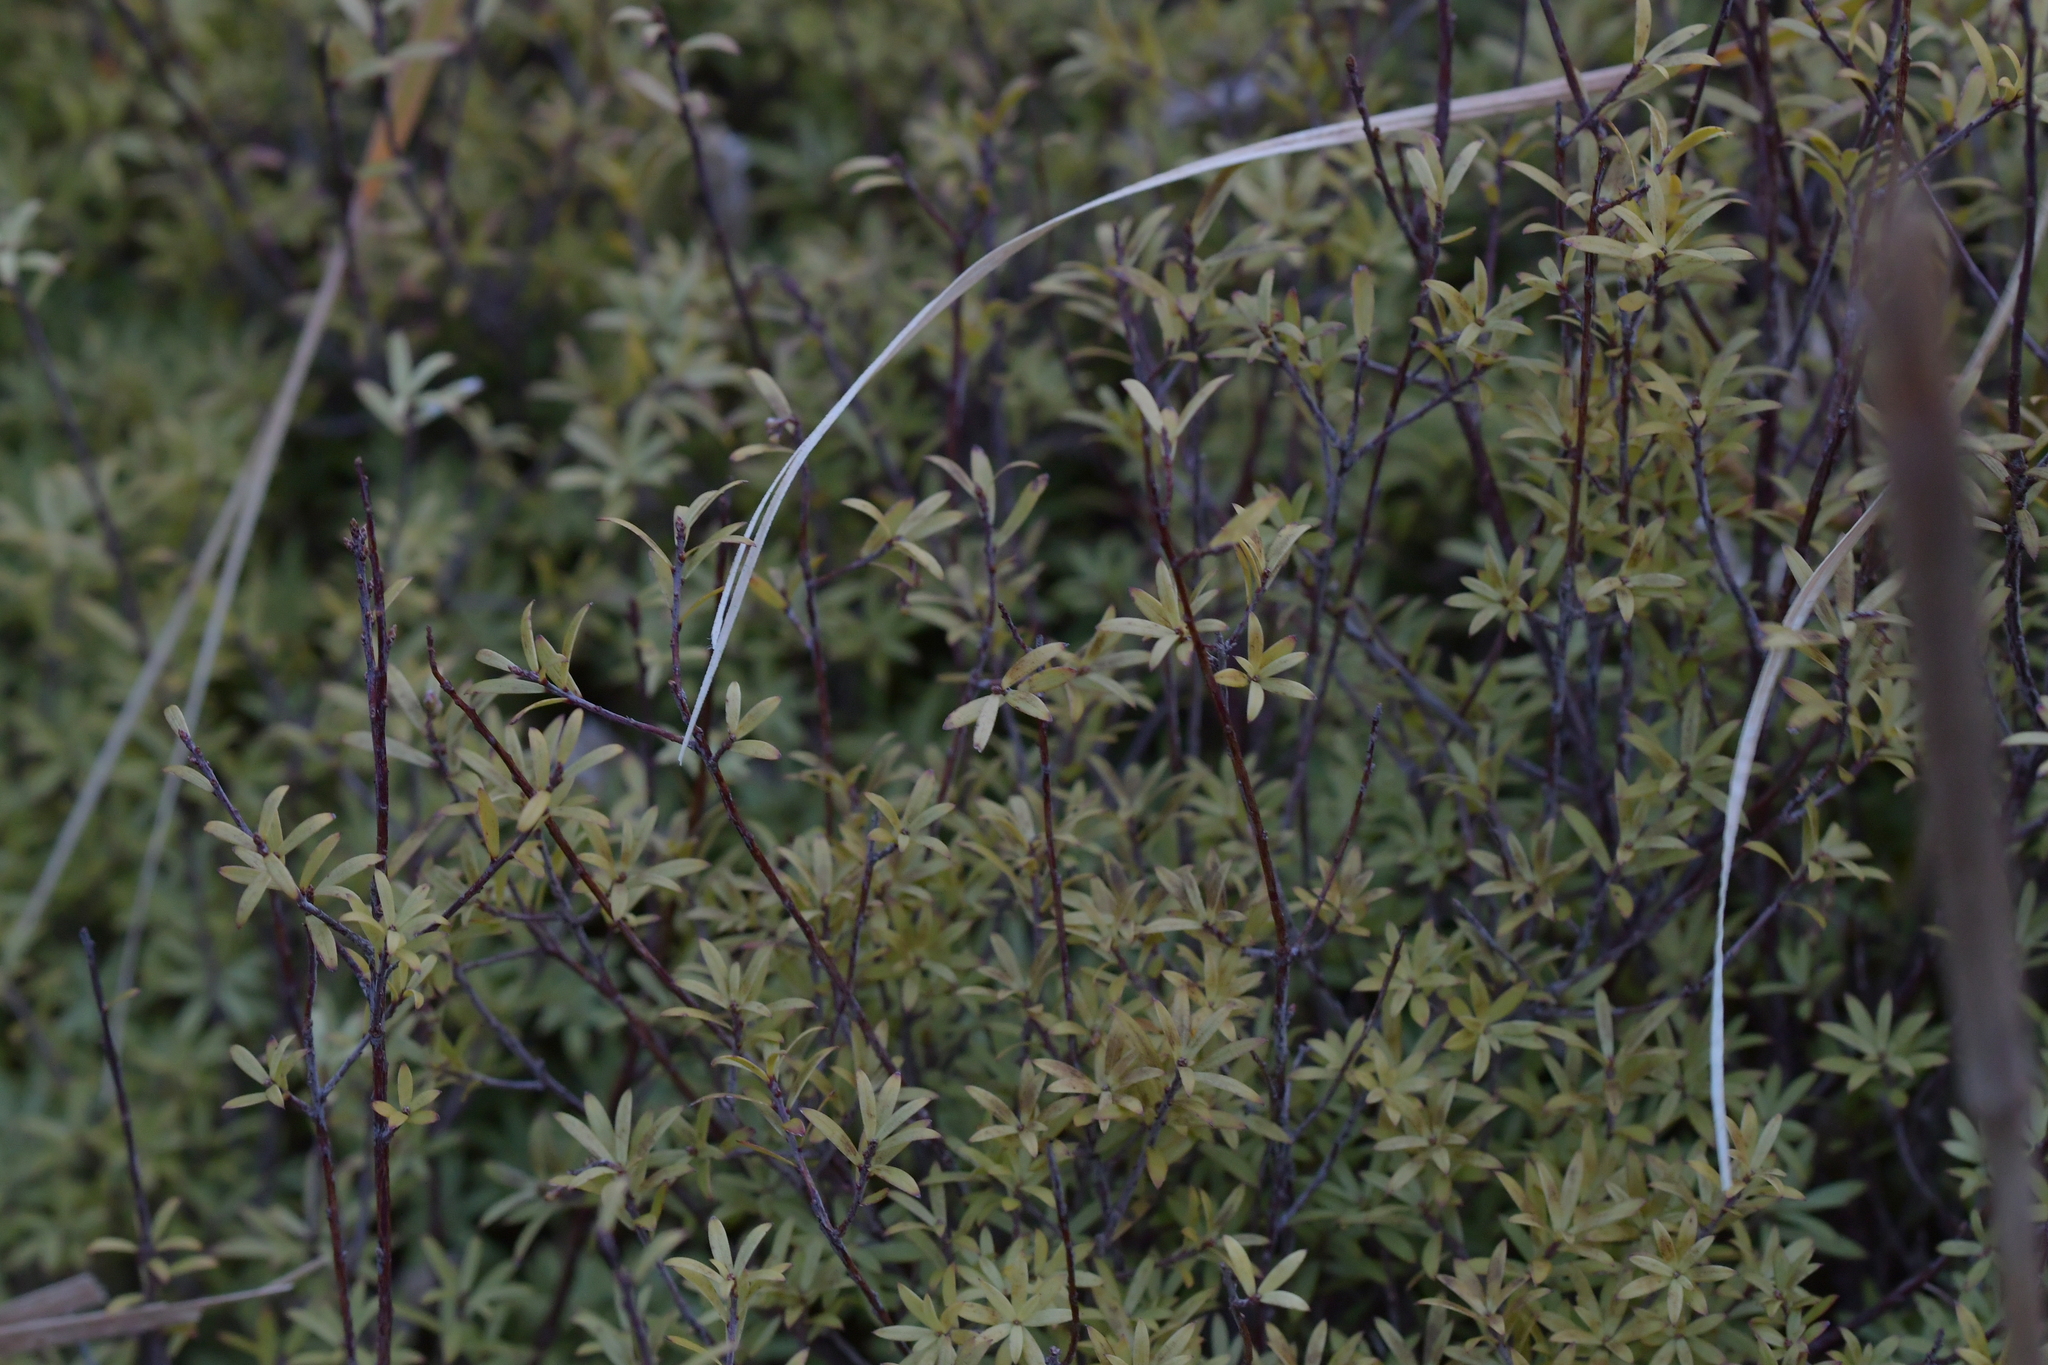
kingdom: Plantae
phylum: Tracheophyta
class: Magnoliopsida
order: Ericales
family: Ericaceae
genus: Leucopogon
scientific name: Leucopogon fasciculatus
